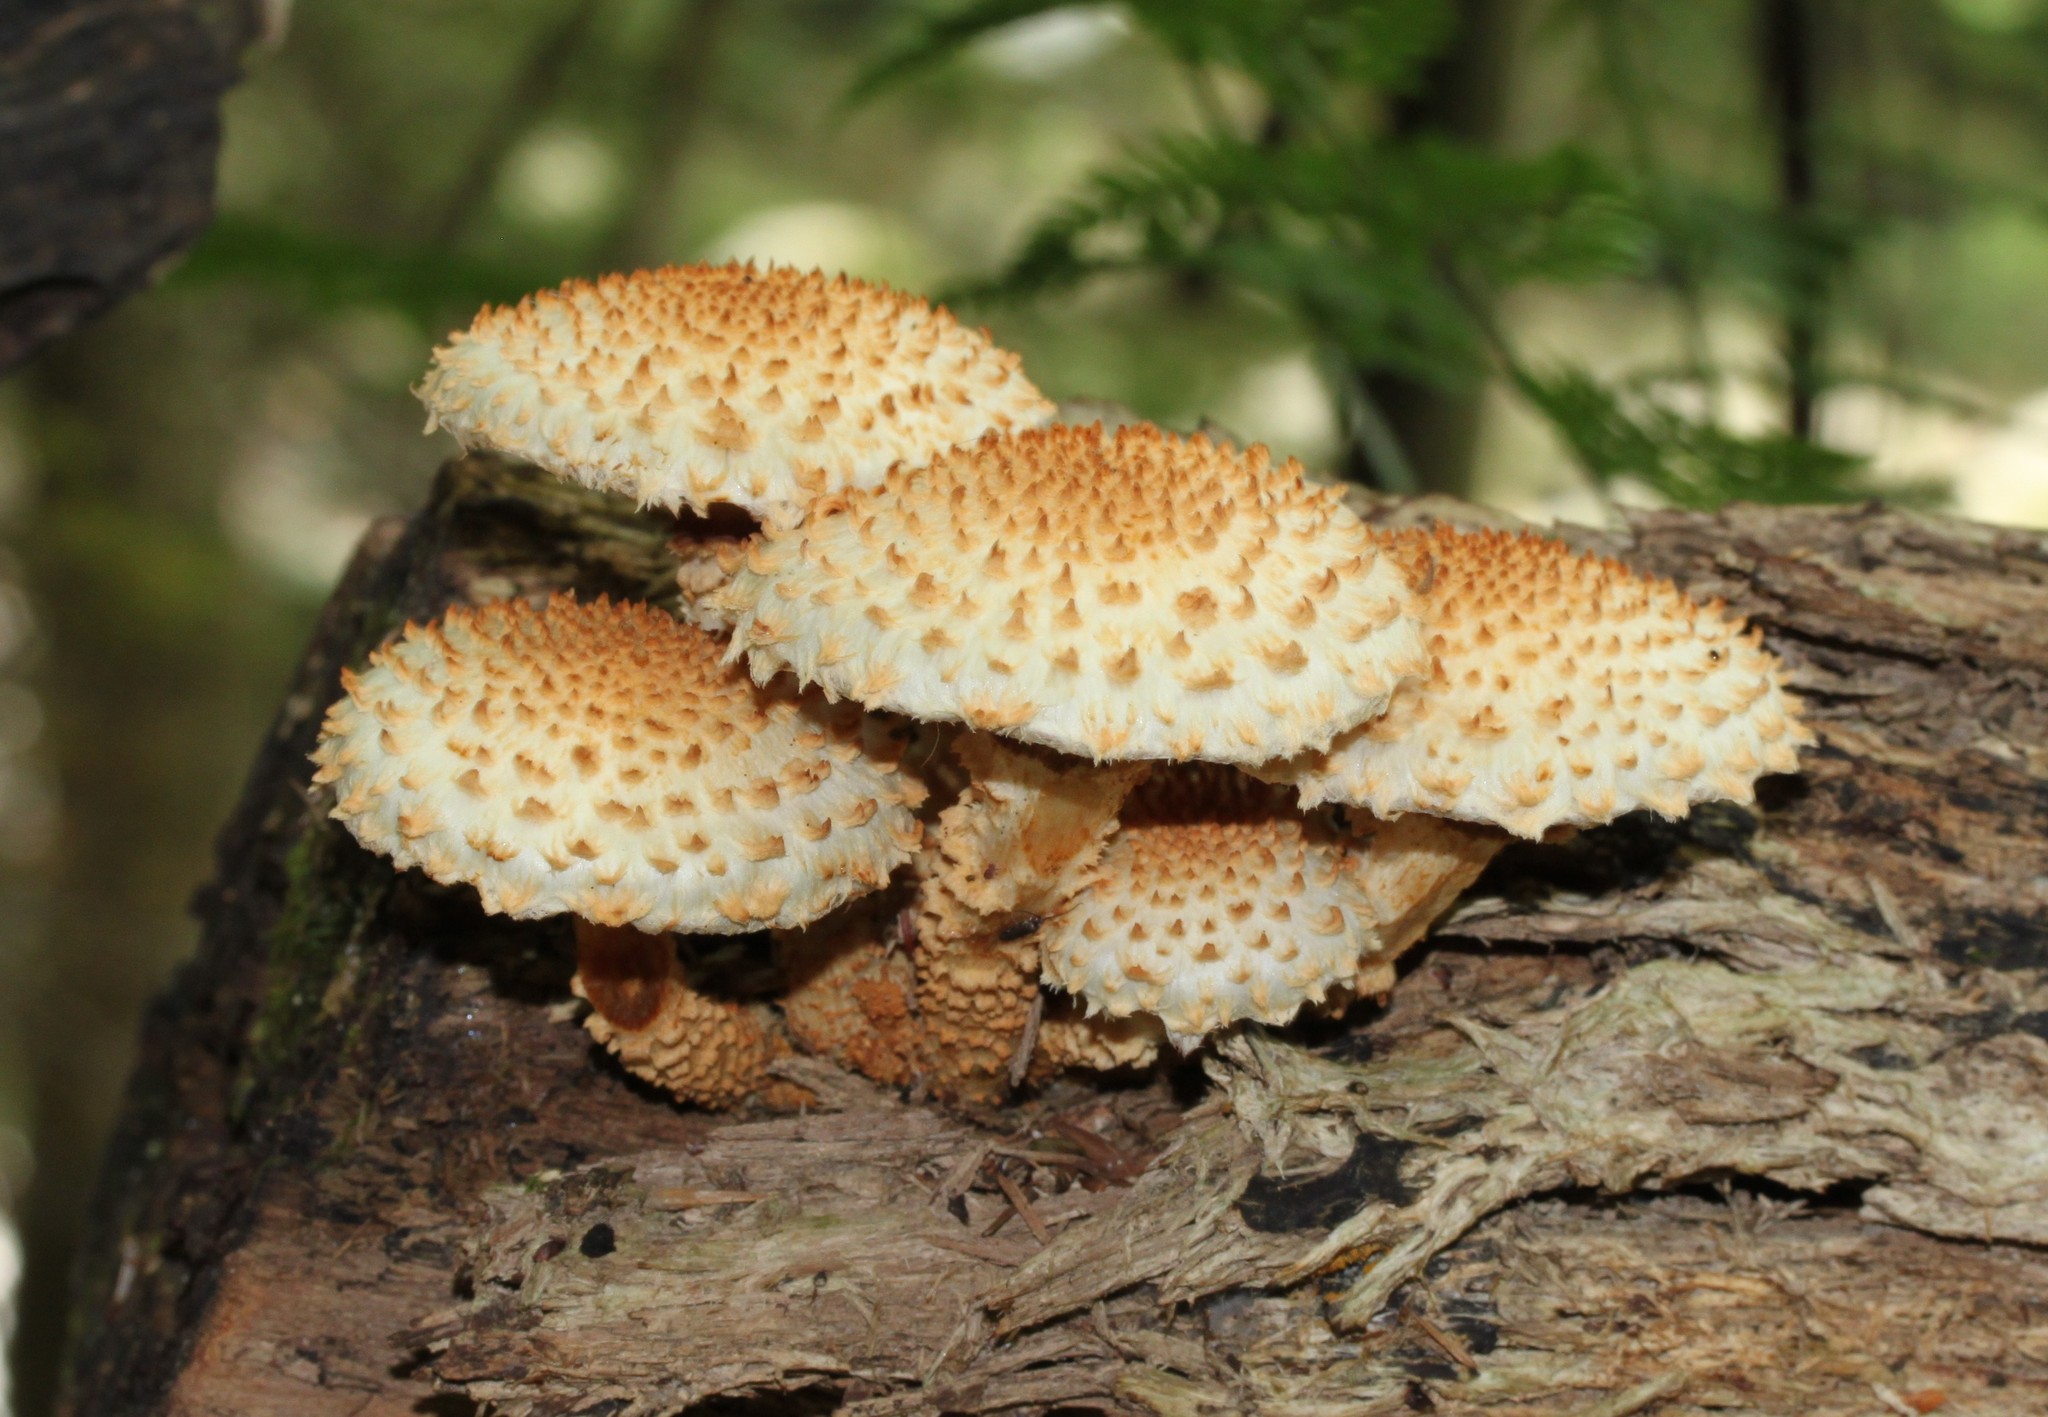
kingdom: Fungi
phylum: Basidiomycota
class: Agaricomycetes
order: Agaricales
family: Strophariaceae
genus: Pholiota
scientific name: Pholiota squarrosa
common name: Shaggy pholiota
